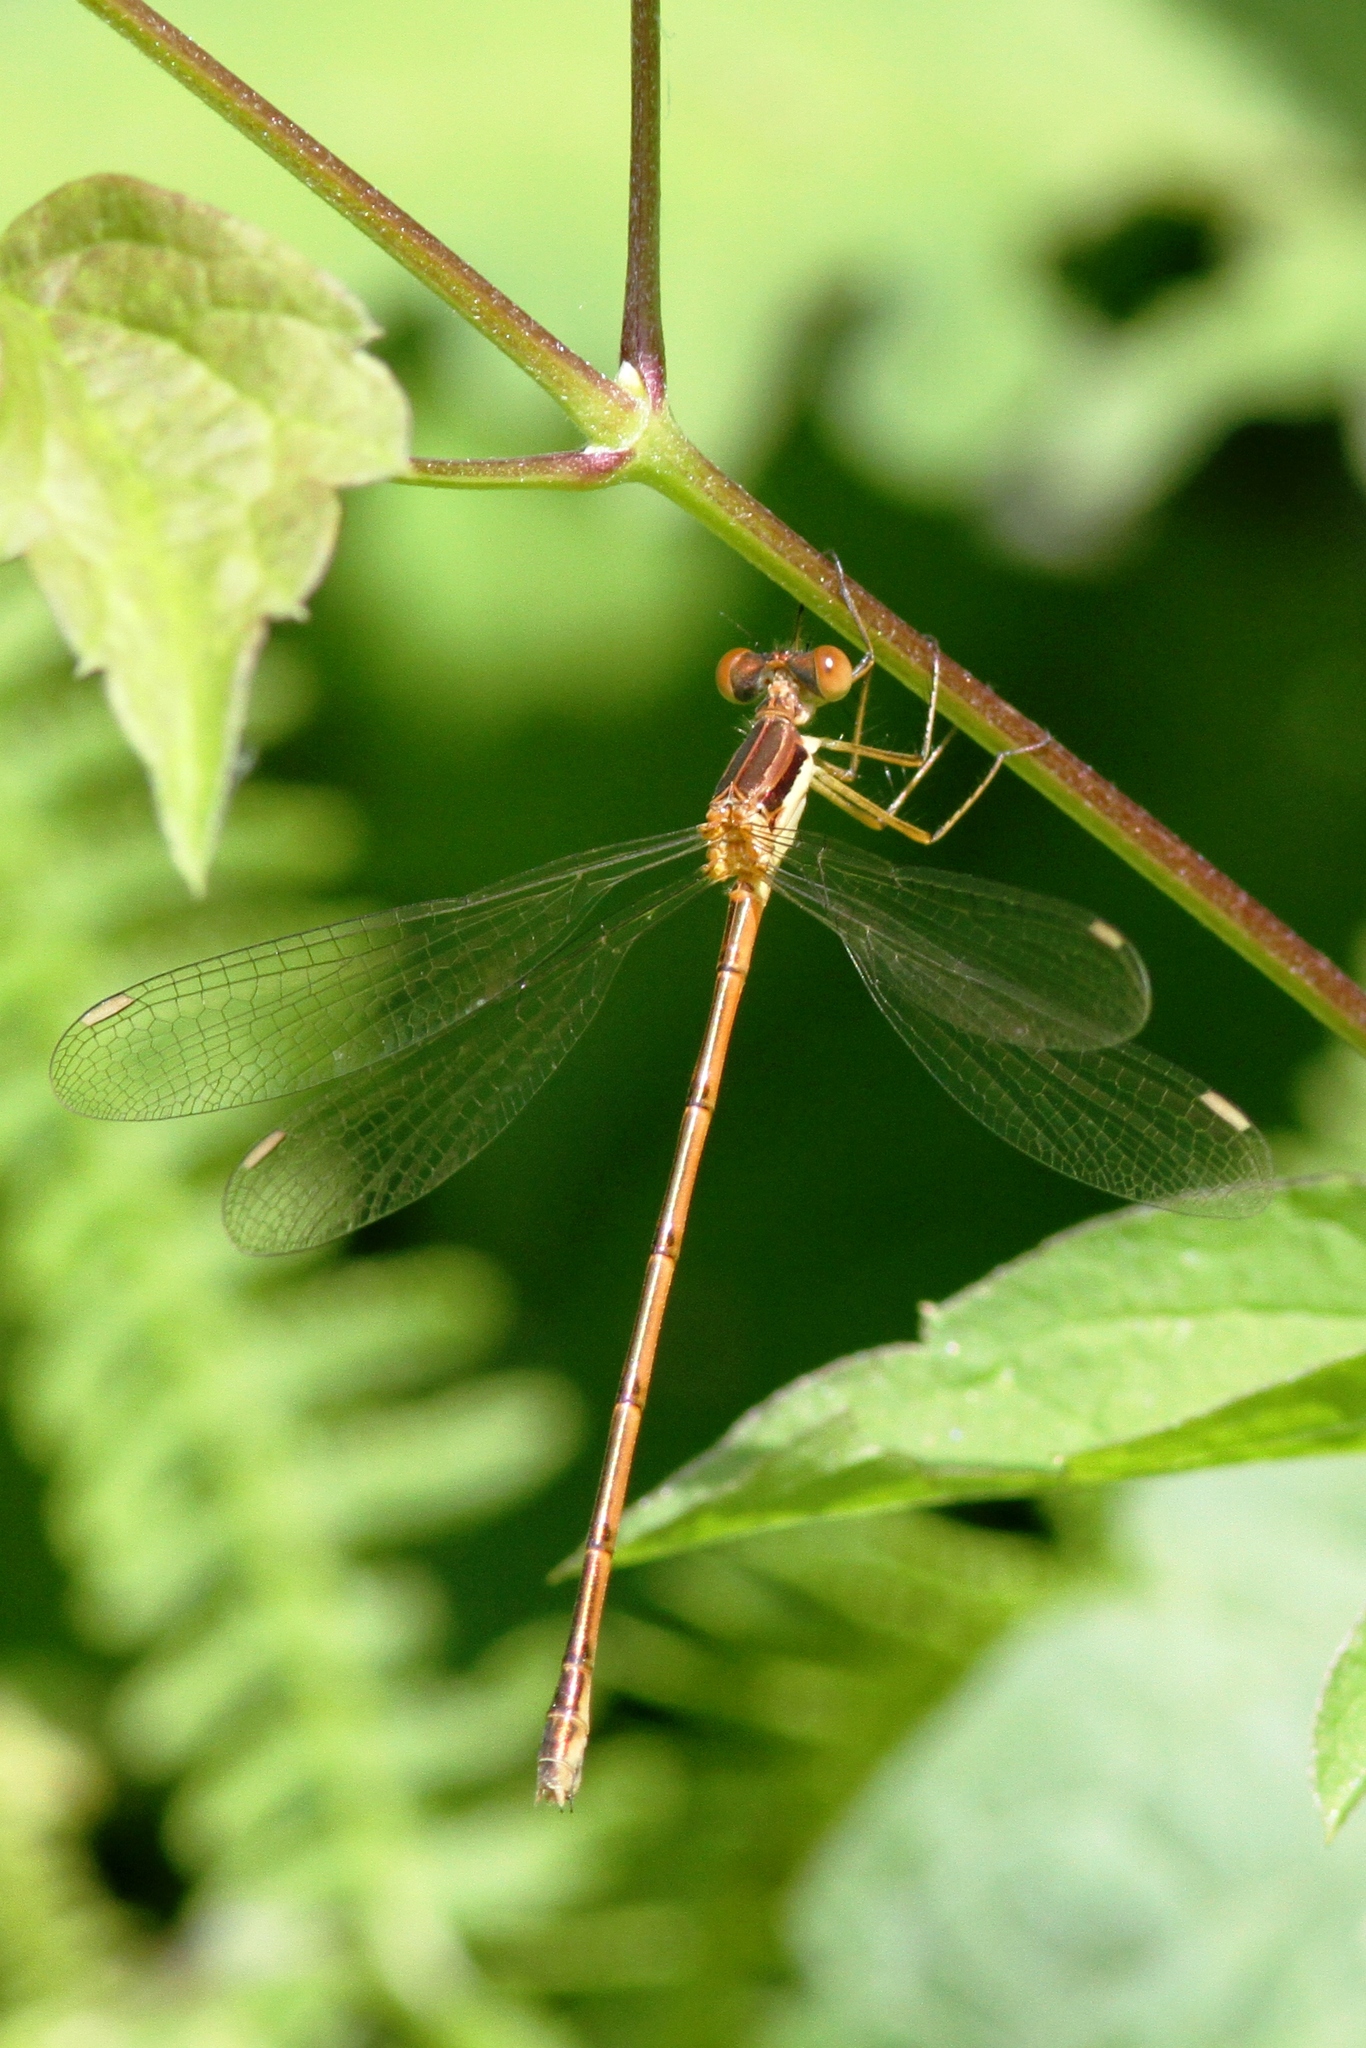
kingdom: Animalia
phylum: Arthropoda
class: Insecta
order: Odonata
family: Lestidae
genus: Lestes
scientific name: Lestes rectangularis
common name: Slender spreadwing
